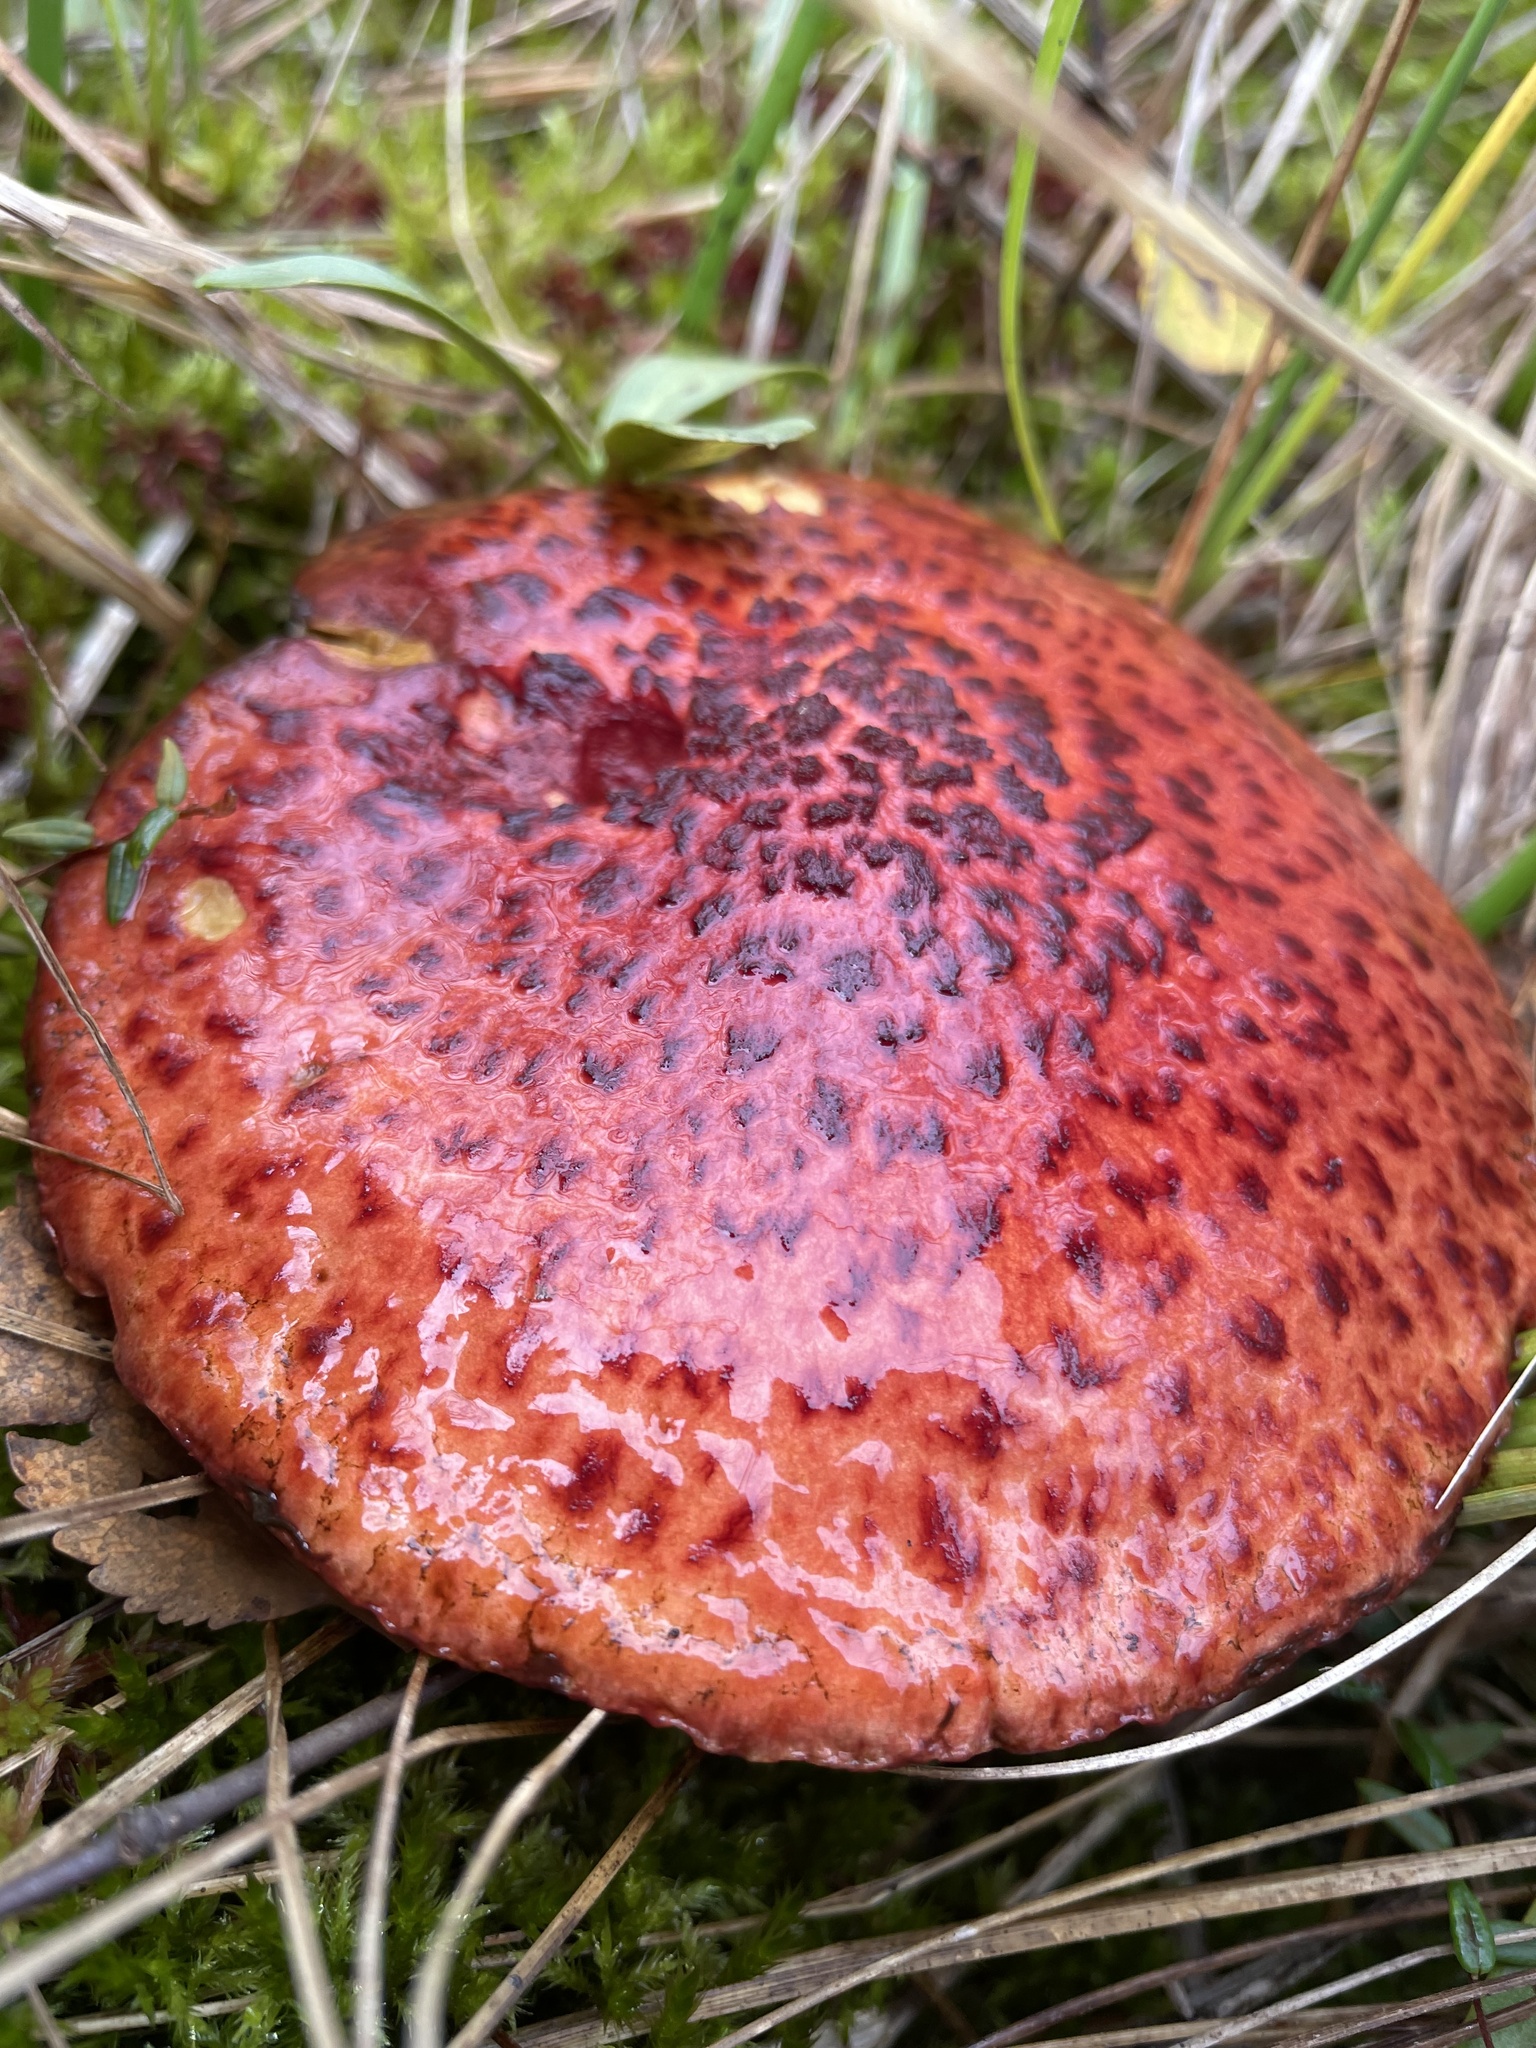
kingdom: Fungi
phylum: Basidiomycota
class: Agaricomycetes
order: Boletales
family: Suillaceae
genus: Boletinus
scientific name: Boletinus spectabilis
